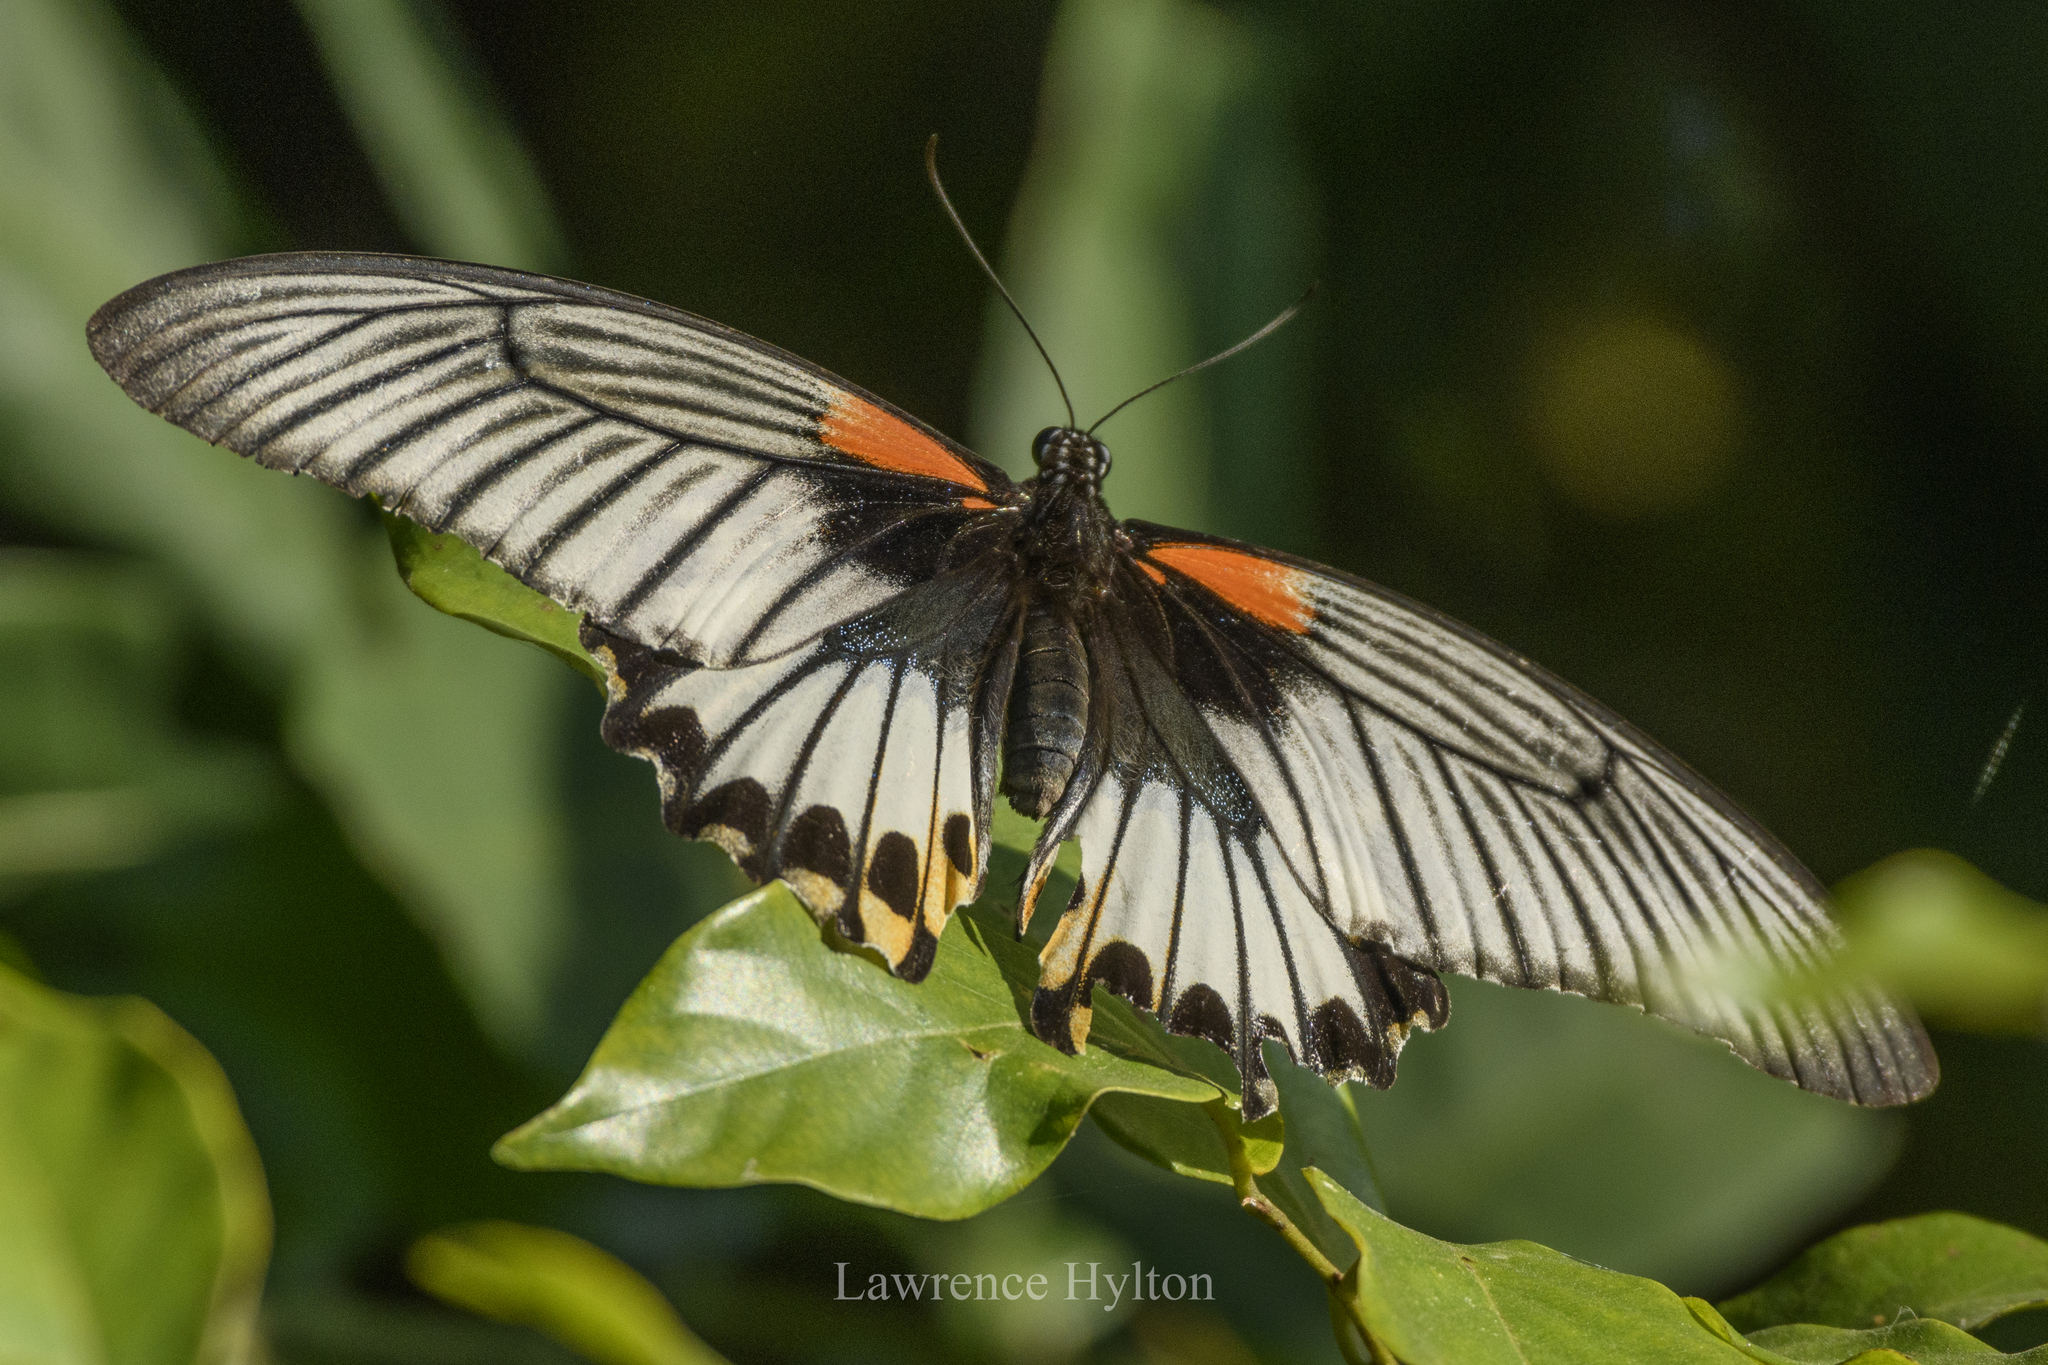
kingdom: Animalia
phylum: Arthropoda
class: Insecta
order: Lepidoptera
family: Papilionidae
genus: Papilio
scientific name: Papilio memnon
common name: Great mormon
